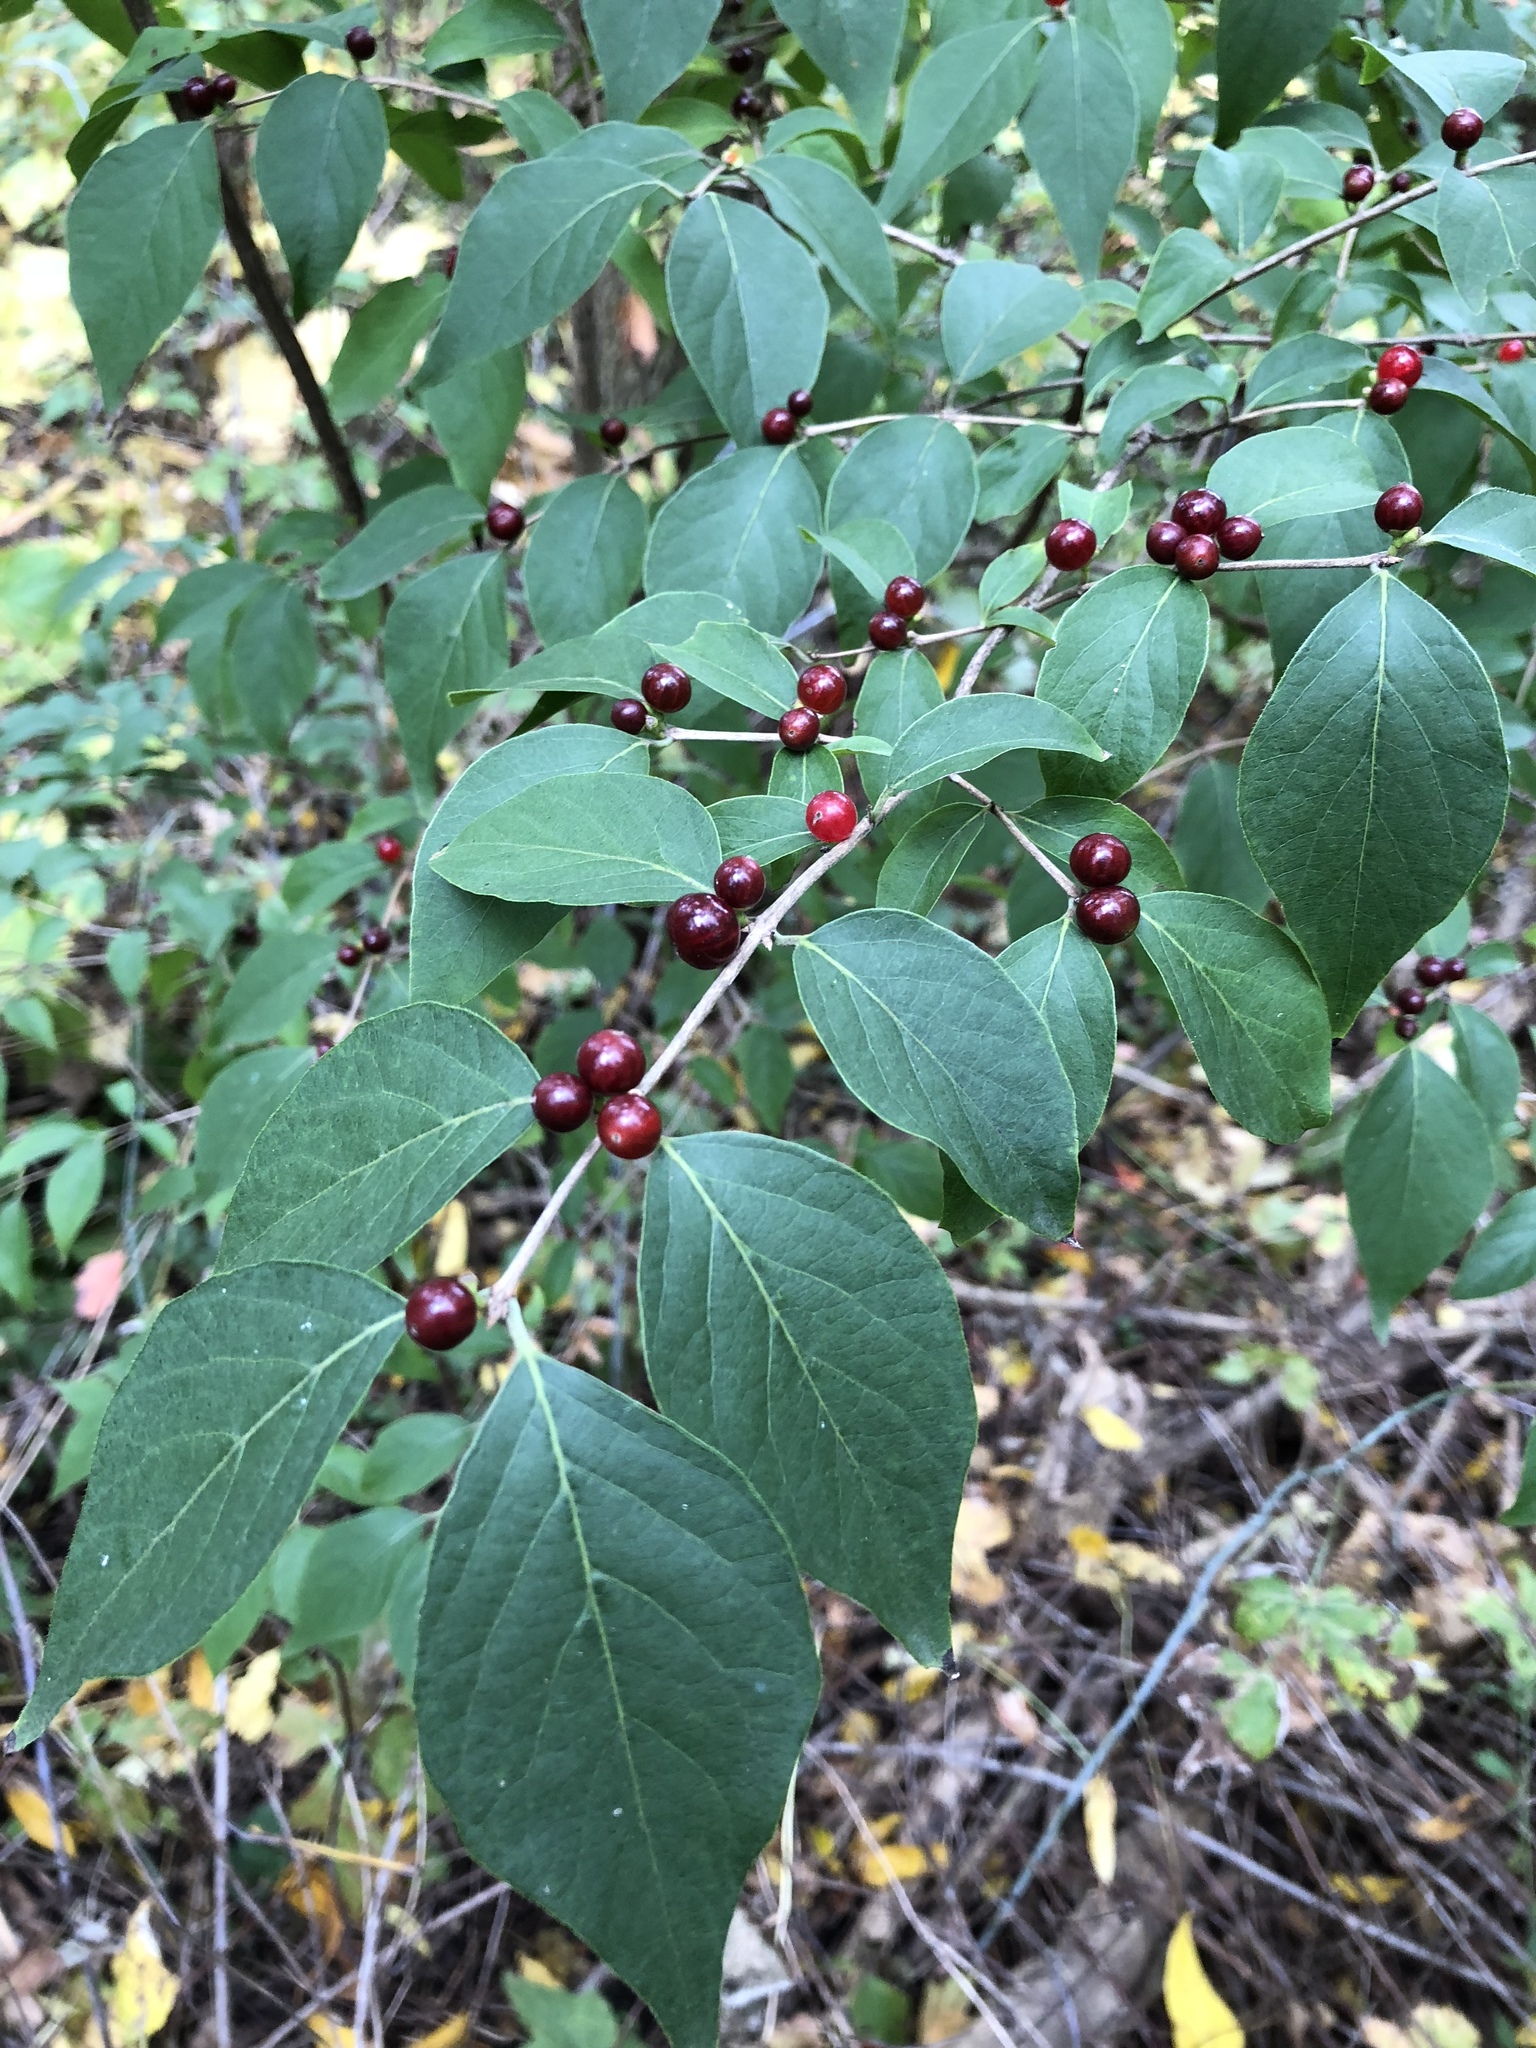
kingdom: Plantae
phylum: Tracheophyta
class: Magnoliopsida
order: Dipsacales
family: Caprifoliaceae
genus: Lonicera
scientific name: Lonicera maackii
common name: Amur honeysuckle
